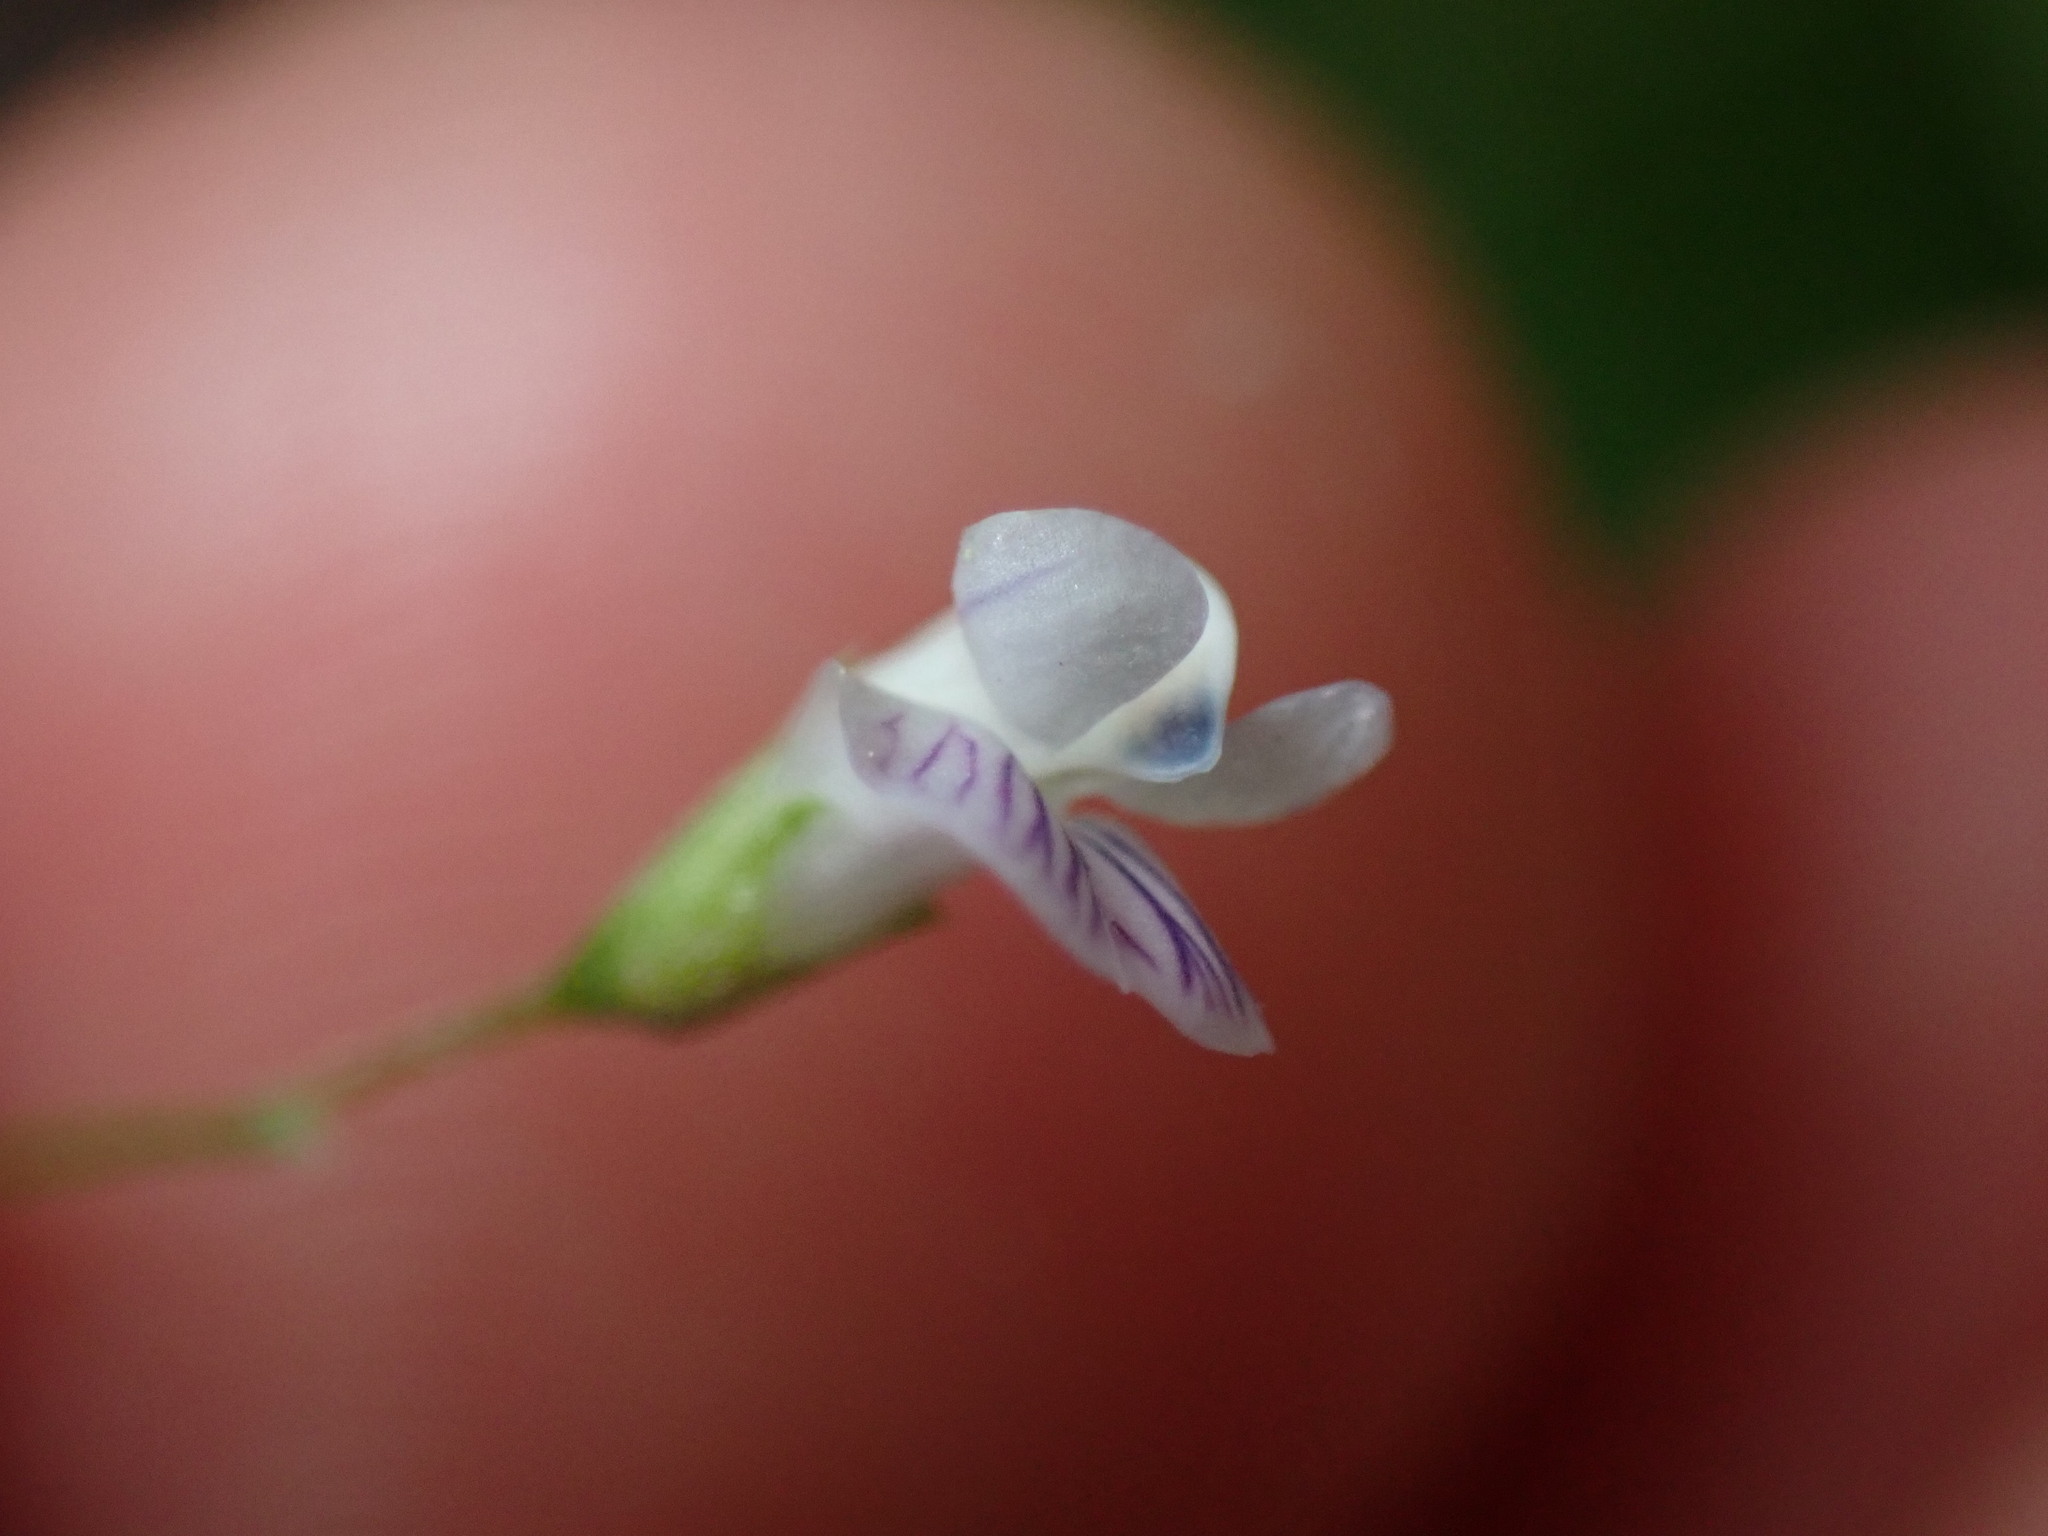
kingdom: Plantae
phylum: Tracheophyta
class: Magnoliopsida
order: Fabales
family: Fabaceae
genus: Vicia
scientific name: Vicia tetrasperma
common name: Smooth tare
